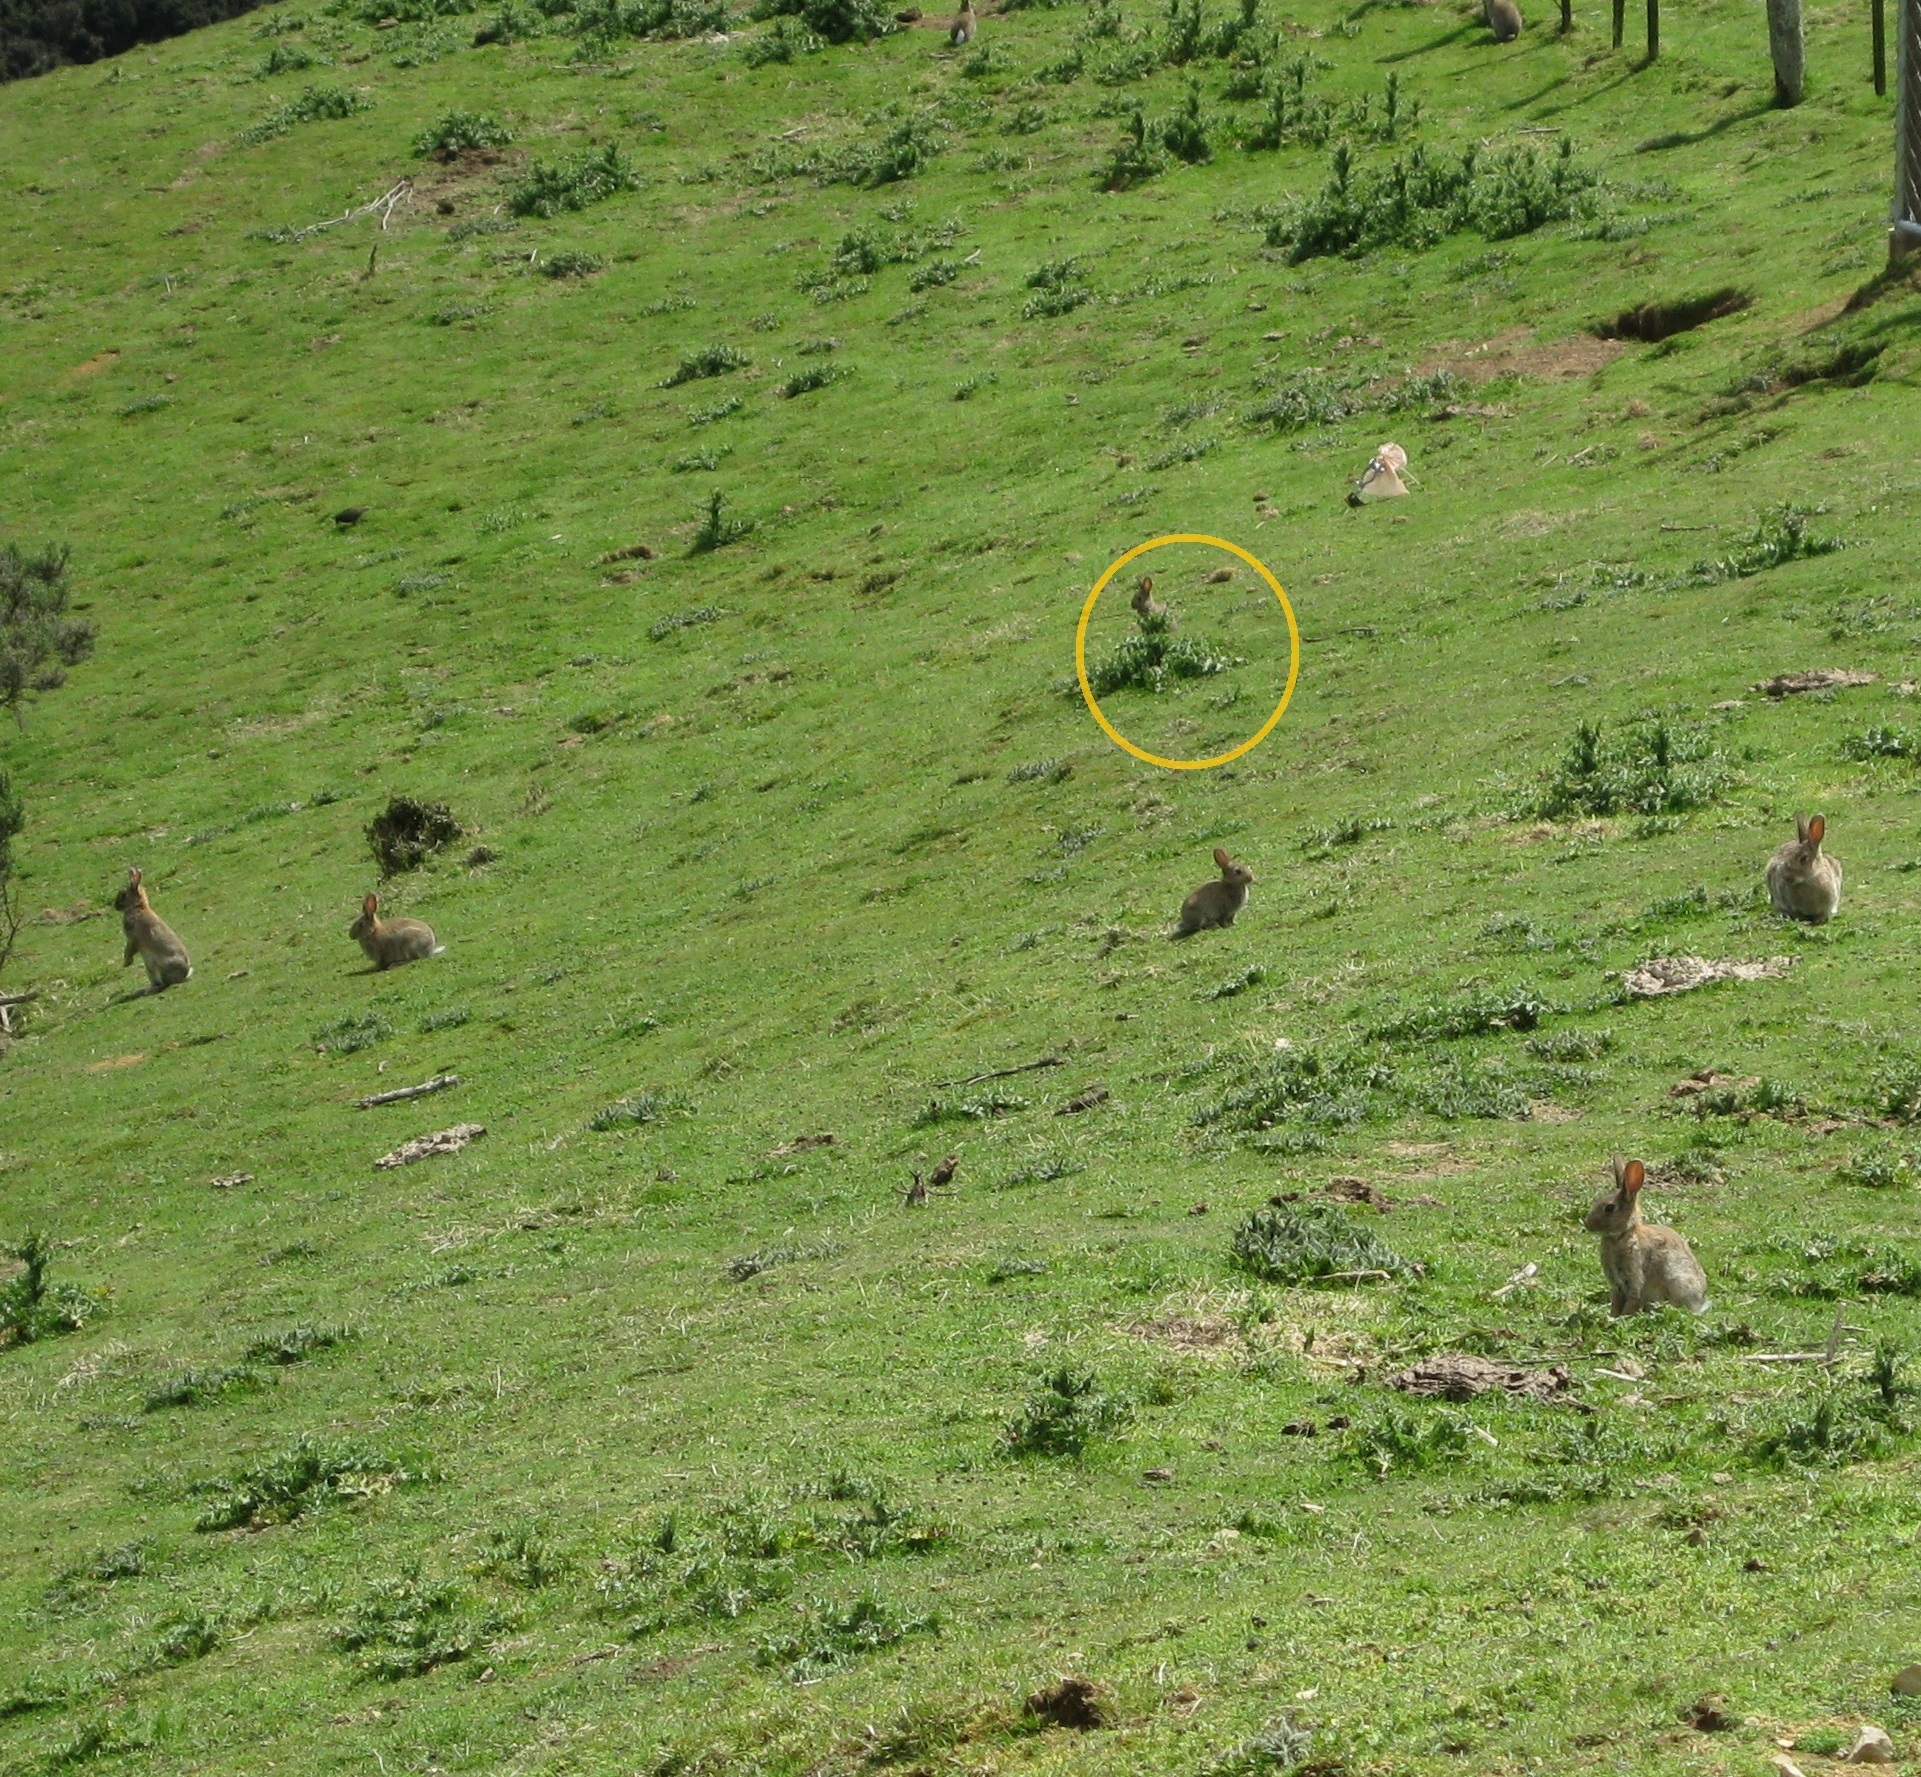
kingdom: Animalia
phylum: Chordata
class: Mammalia
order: Lagomorpha
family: Leporidae
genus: Oryctolagus
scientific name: Oryctolagus cuniculus
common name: European rabbit
